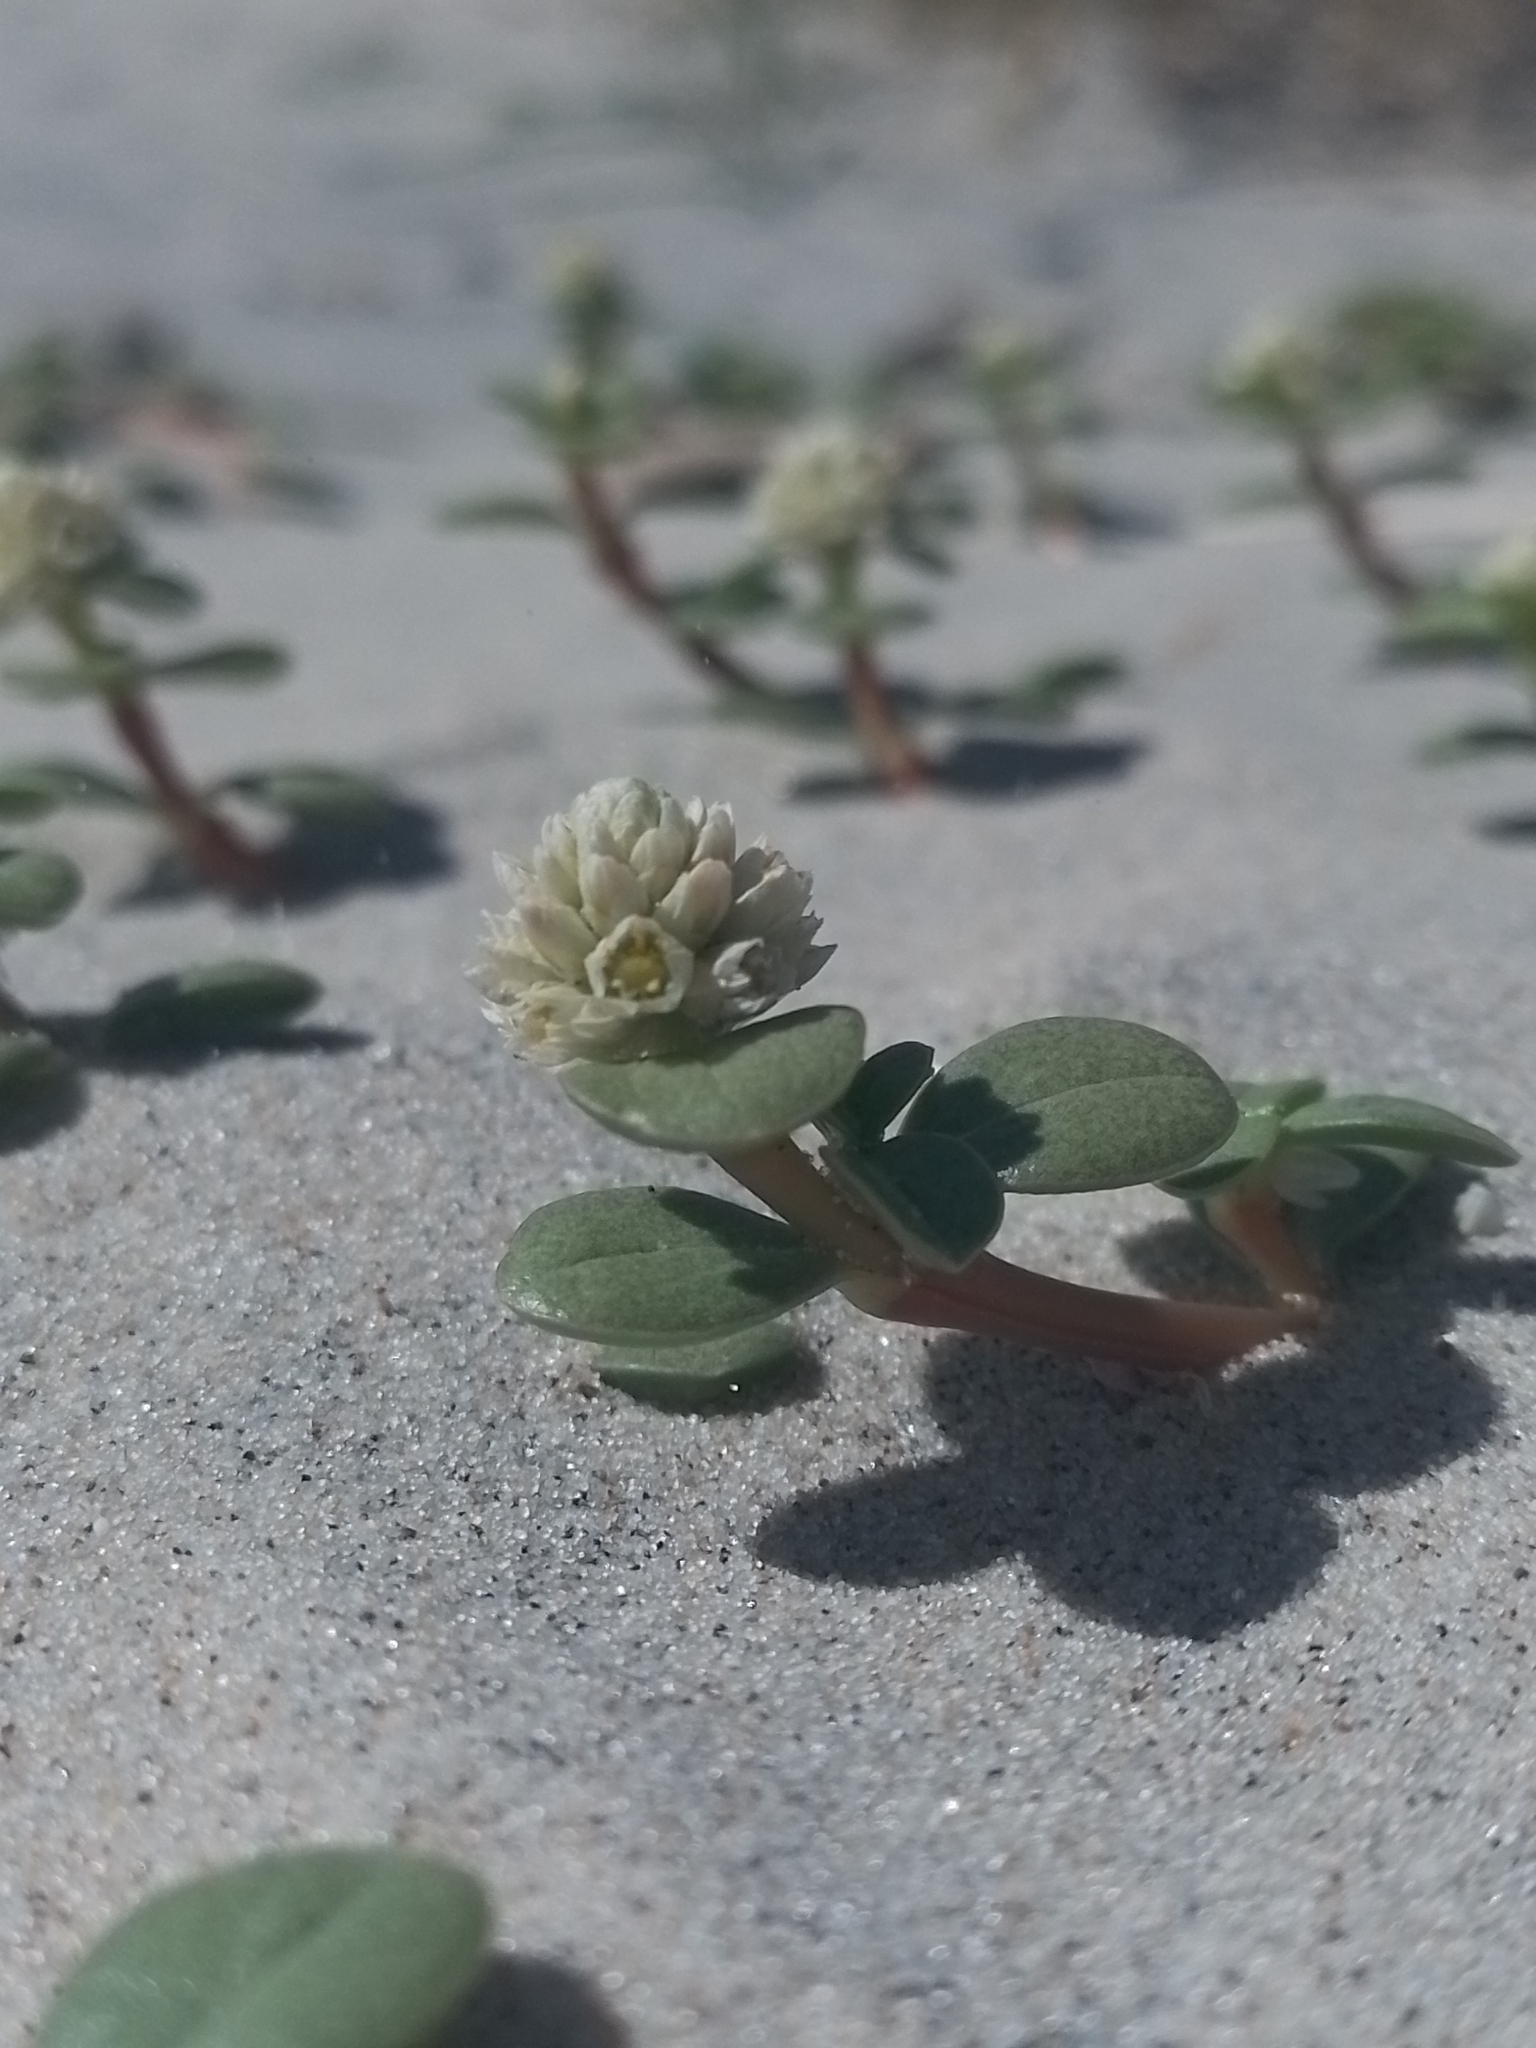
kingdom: Plantae
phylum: Tracheophyta
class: Magnoliopsida
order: Caryophyllales
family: Amaranthaceae
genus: Gomphrena
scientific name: Gomphrena portulacoides
